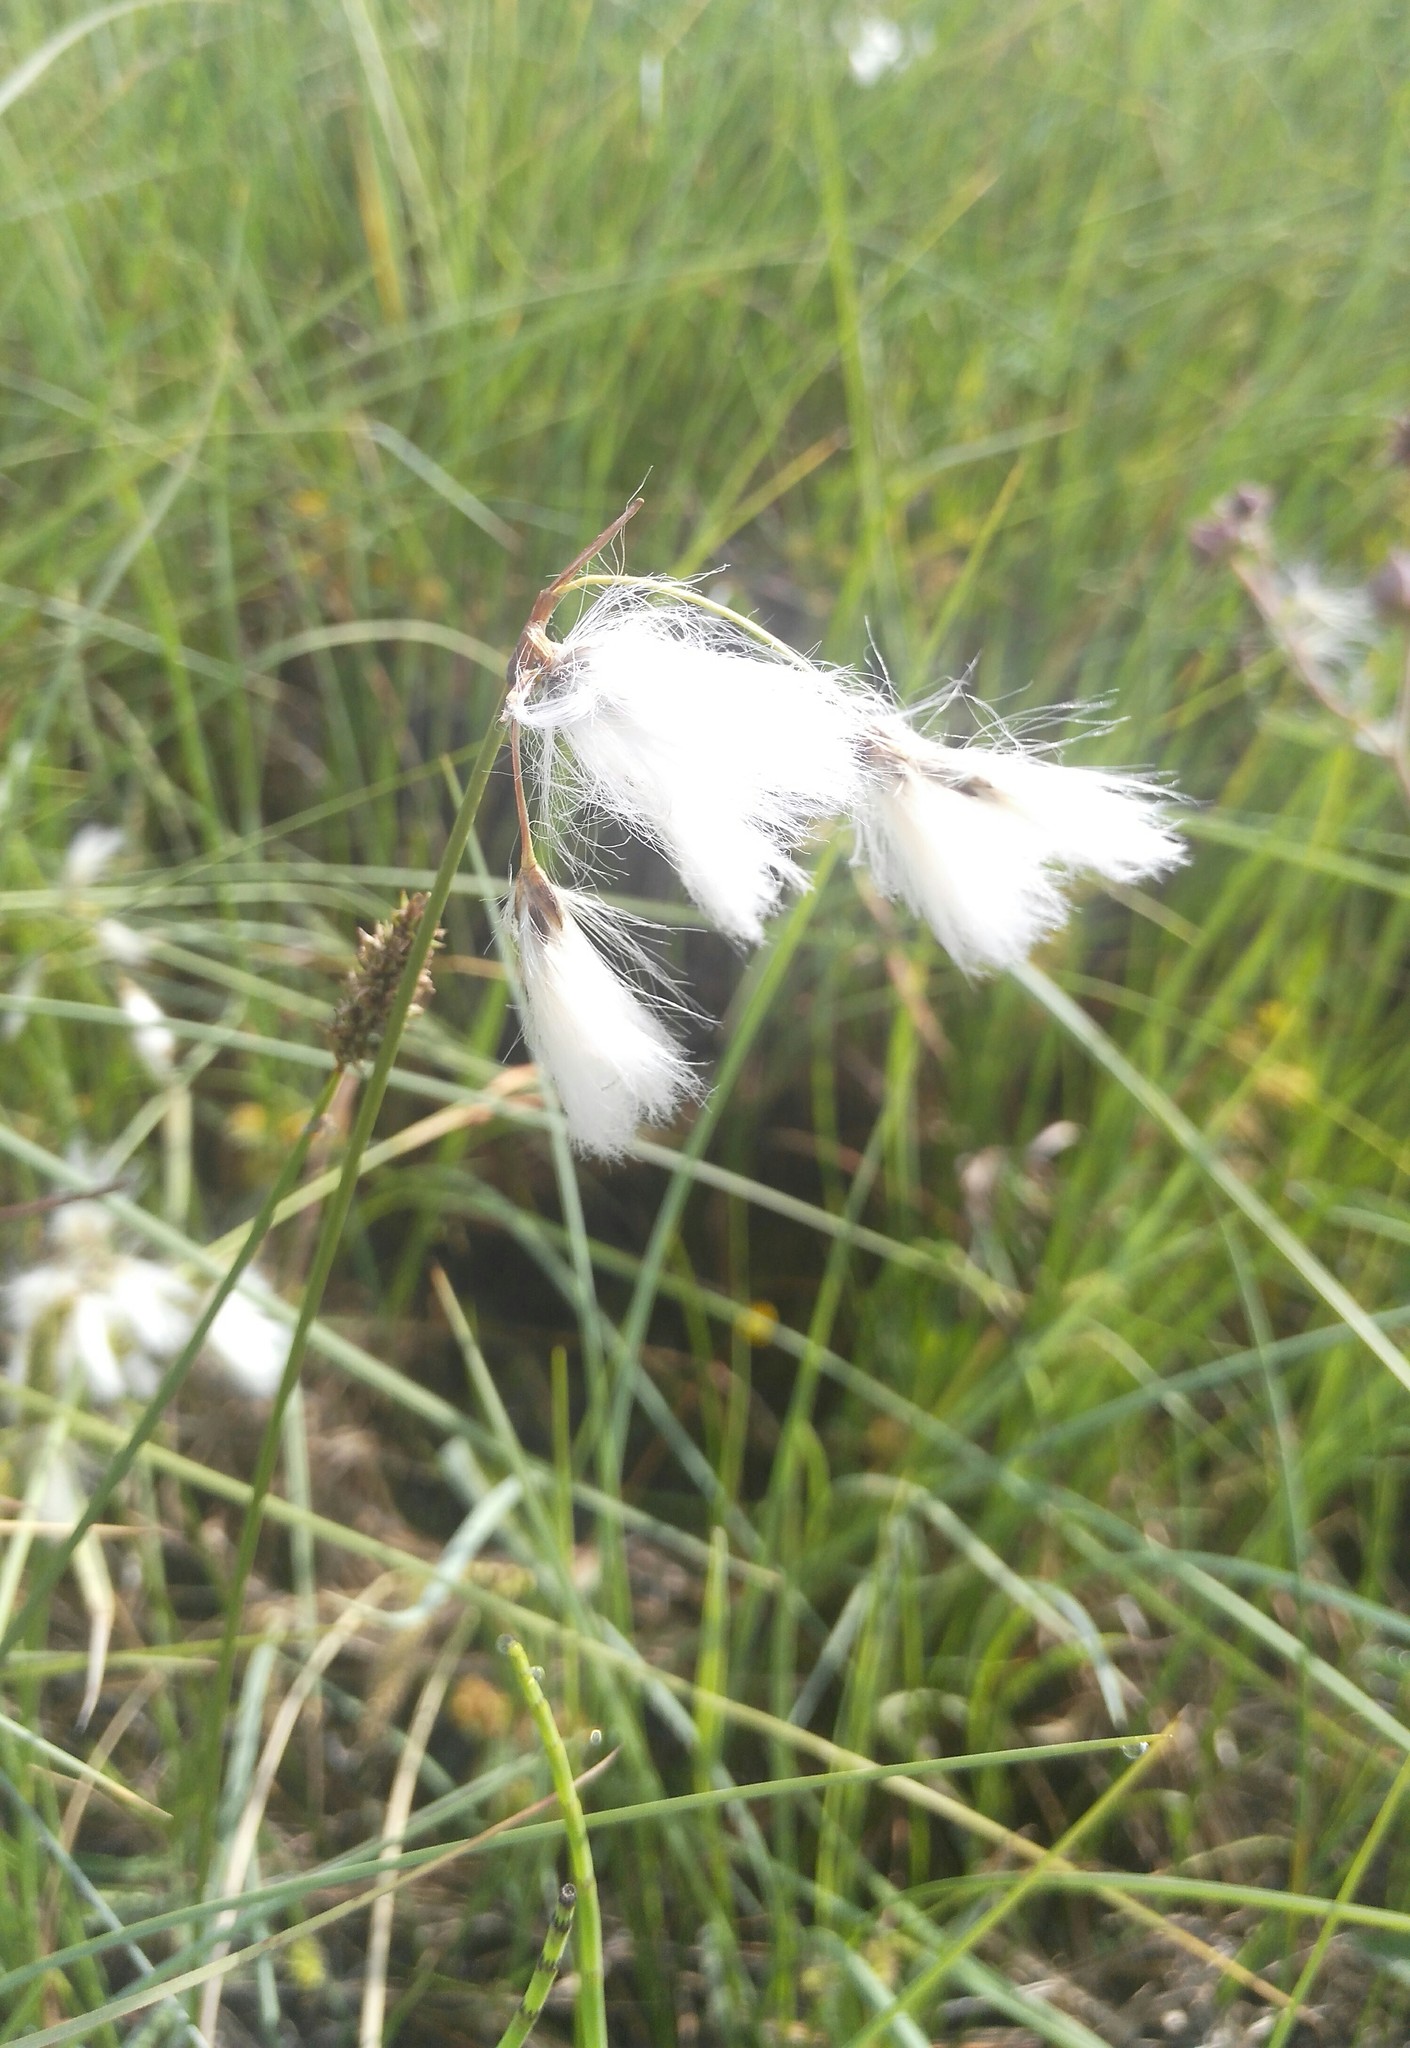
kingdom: Plantae
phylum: Tracheophyta
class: Liliopsida
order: Poales
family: Cyperaceae
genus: Eriophorum
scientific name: Eriophorum angustifolium
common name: Common cottongrass
